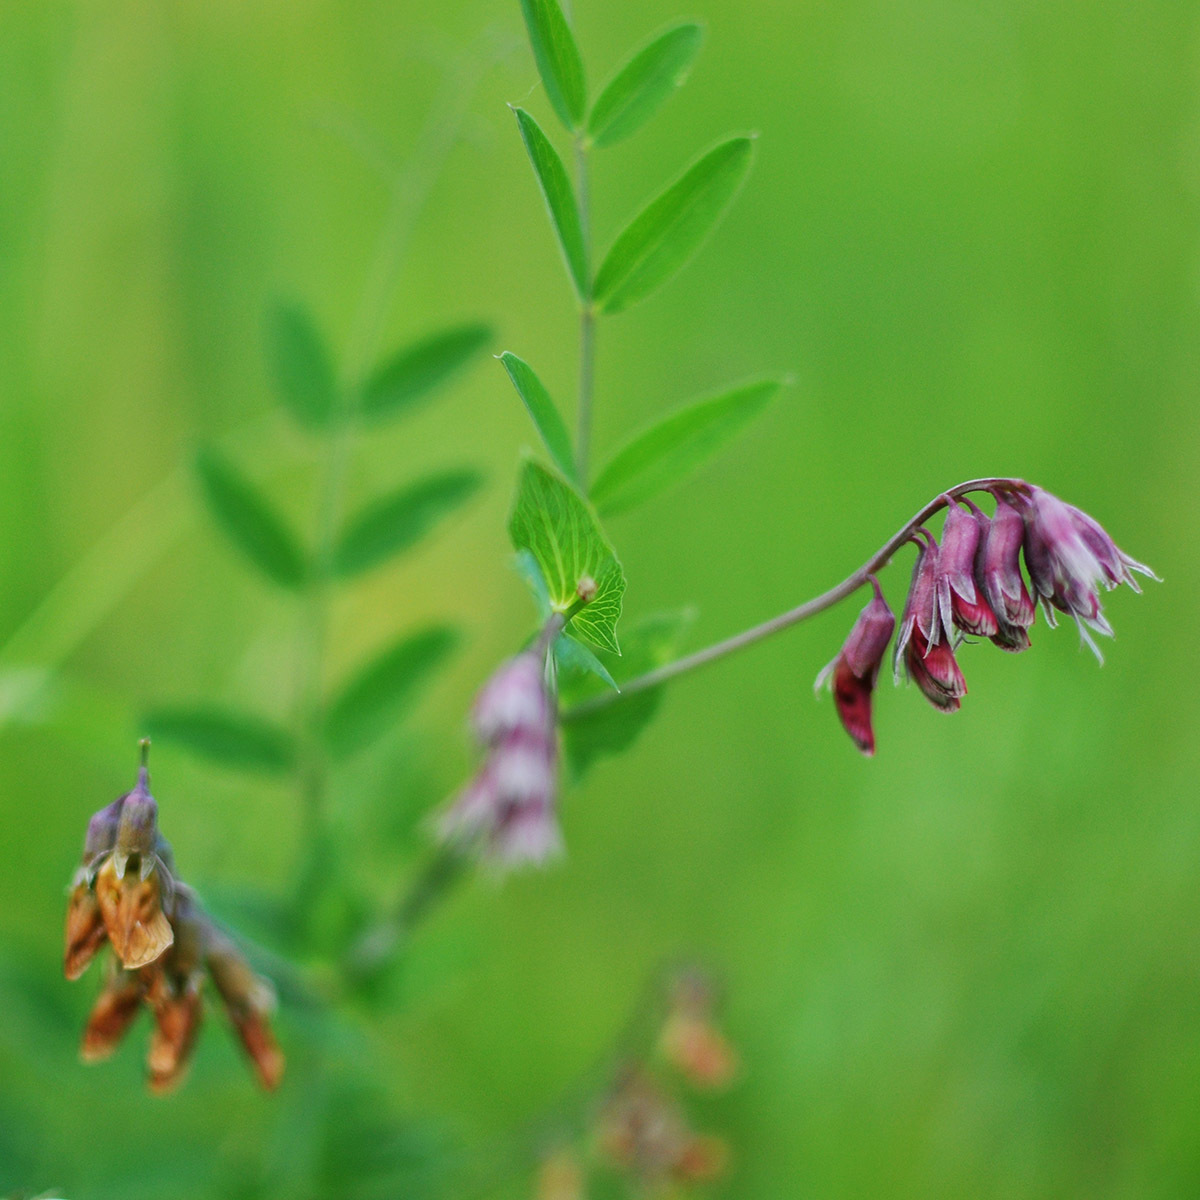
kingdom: Plantae
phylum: Tracheophyta
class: Magnoliopsida
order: Fabales
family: Fabaceae
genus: Lathyrus
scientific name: Lathyrus pisiformis
